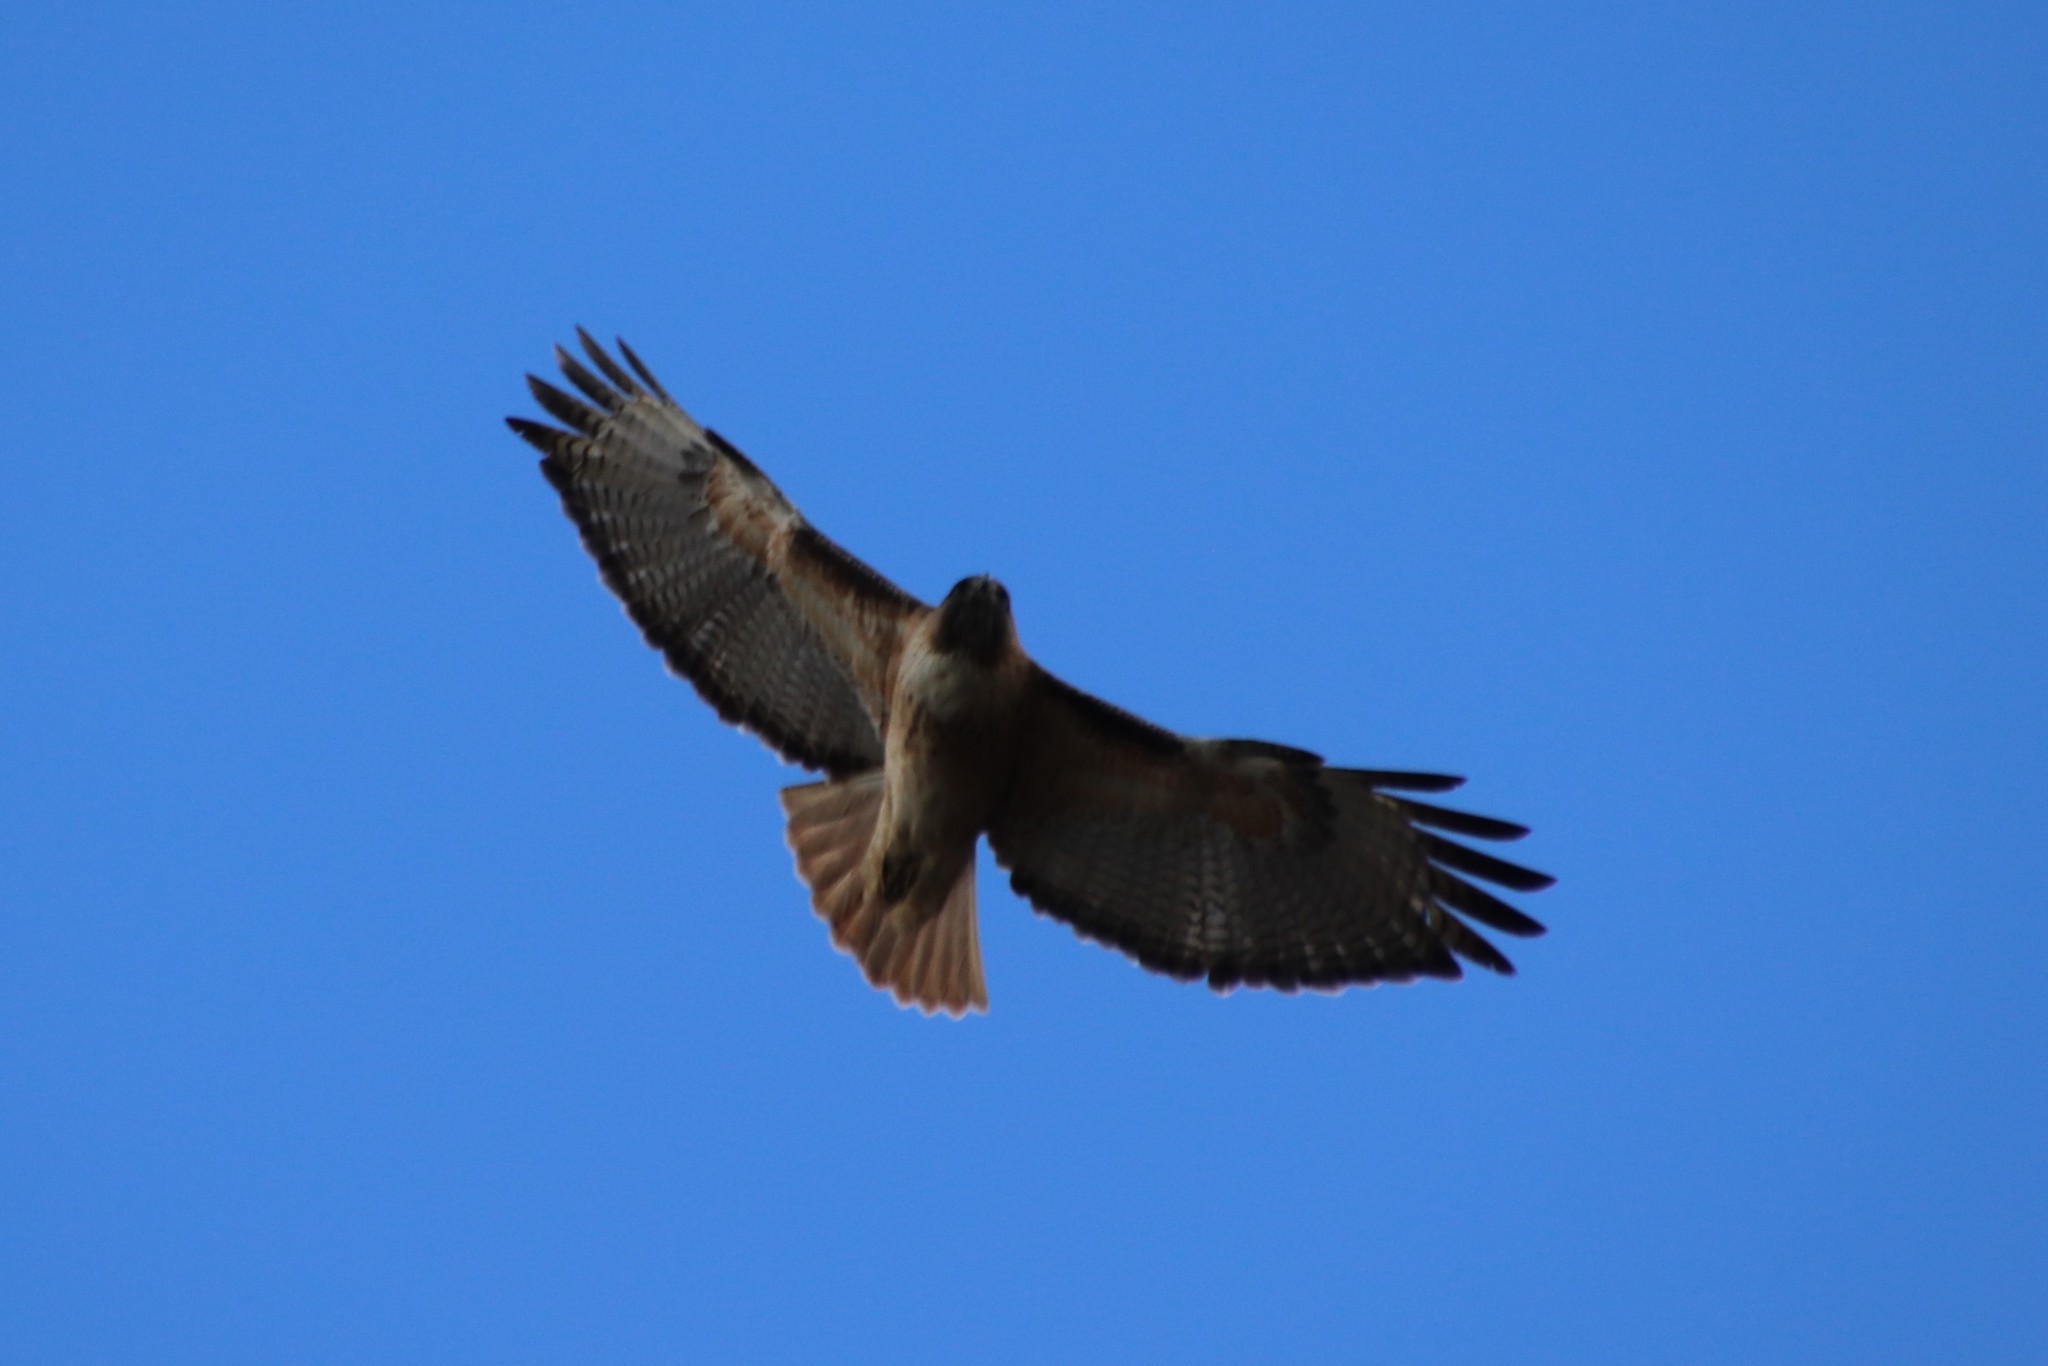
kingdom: Animalia
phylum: Chordata
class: Aves
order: Accipitriformes
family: Accipitridae
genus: Buteo
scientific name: Buteo jamaicensis
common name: Red-tailed hawk
